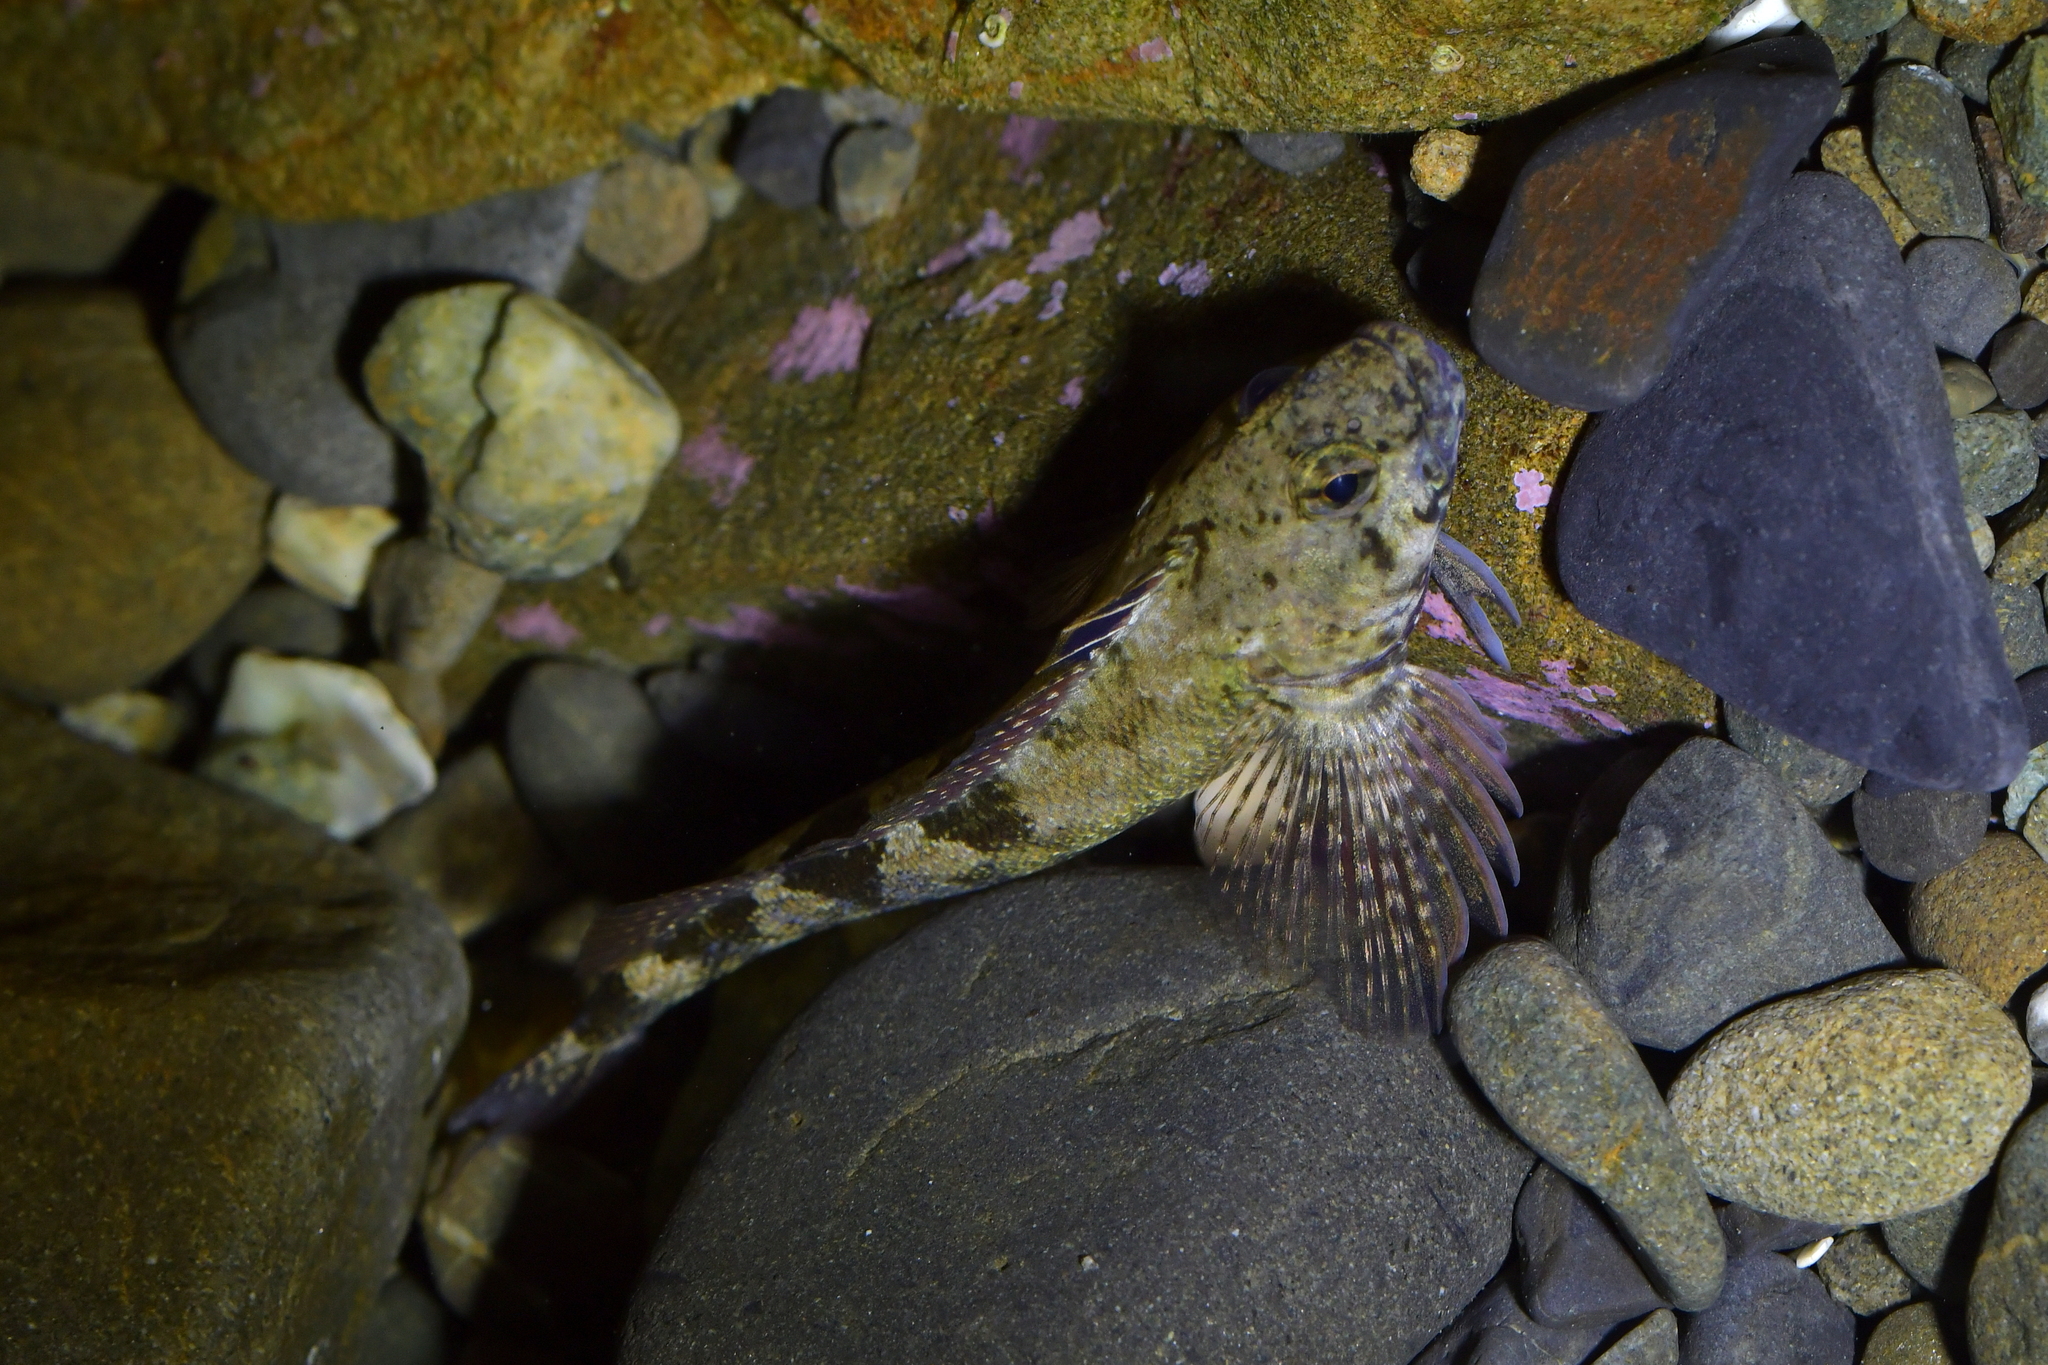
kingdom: Animalia
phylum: Chordata
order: Perciformes
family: Tripterygiidae
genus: Bellapiscis
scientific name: Bellapiscis medius
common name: Twister
